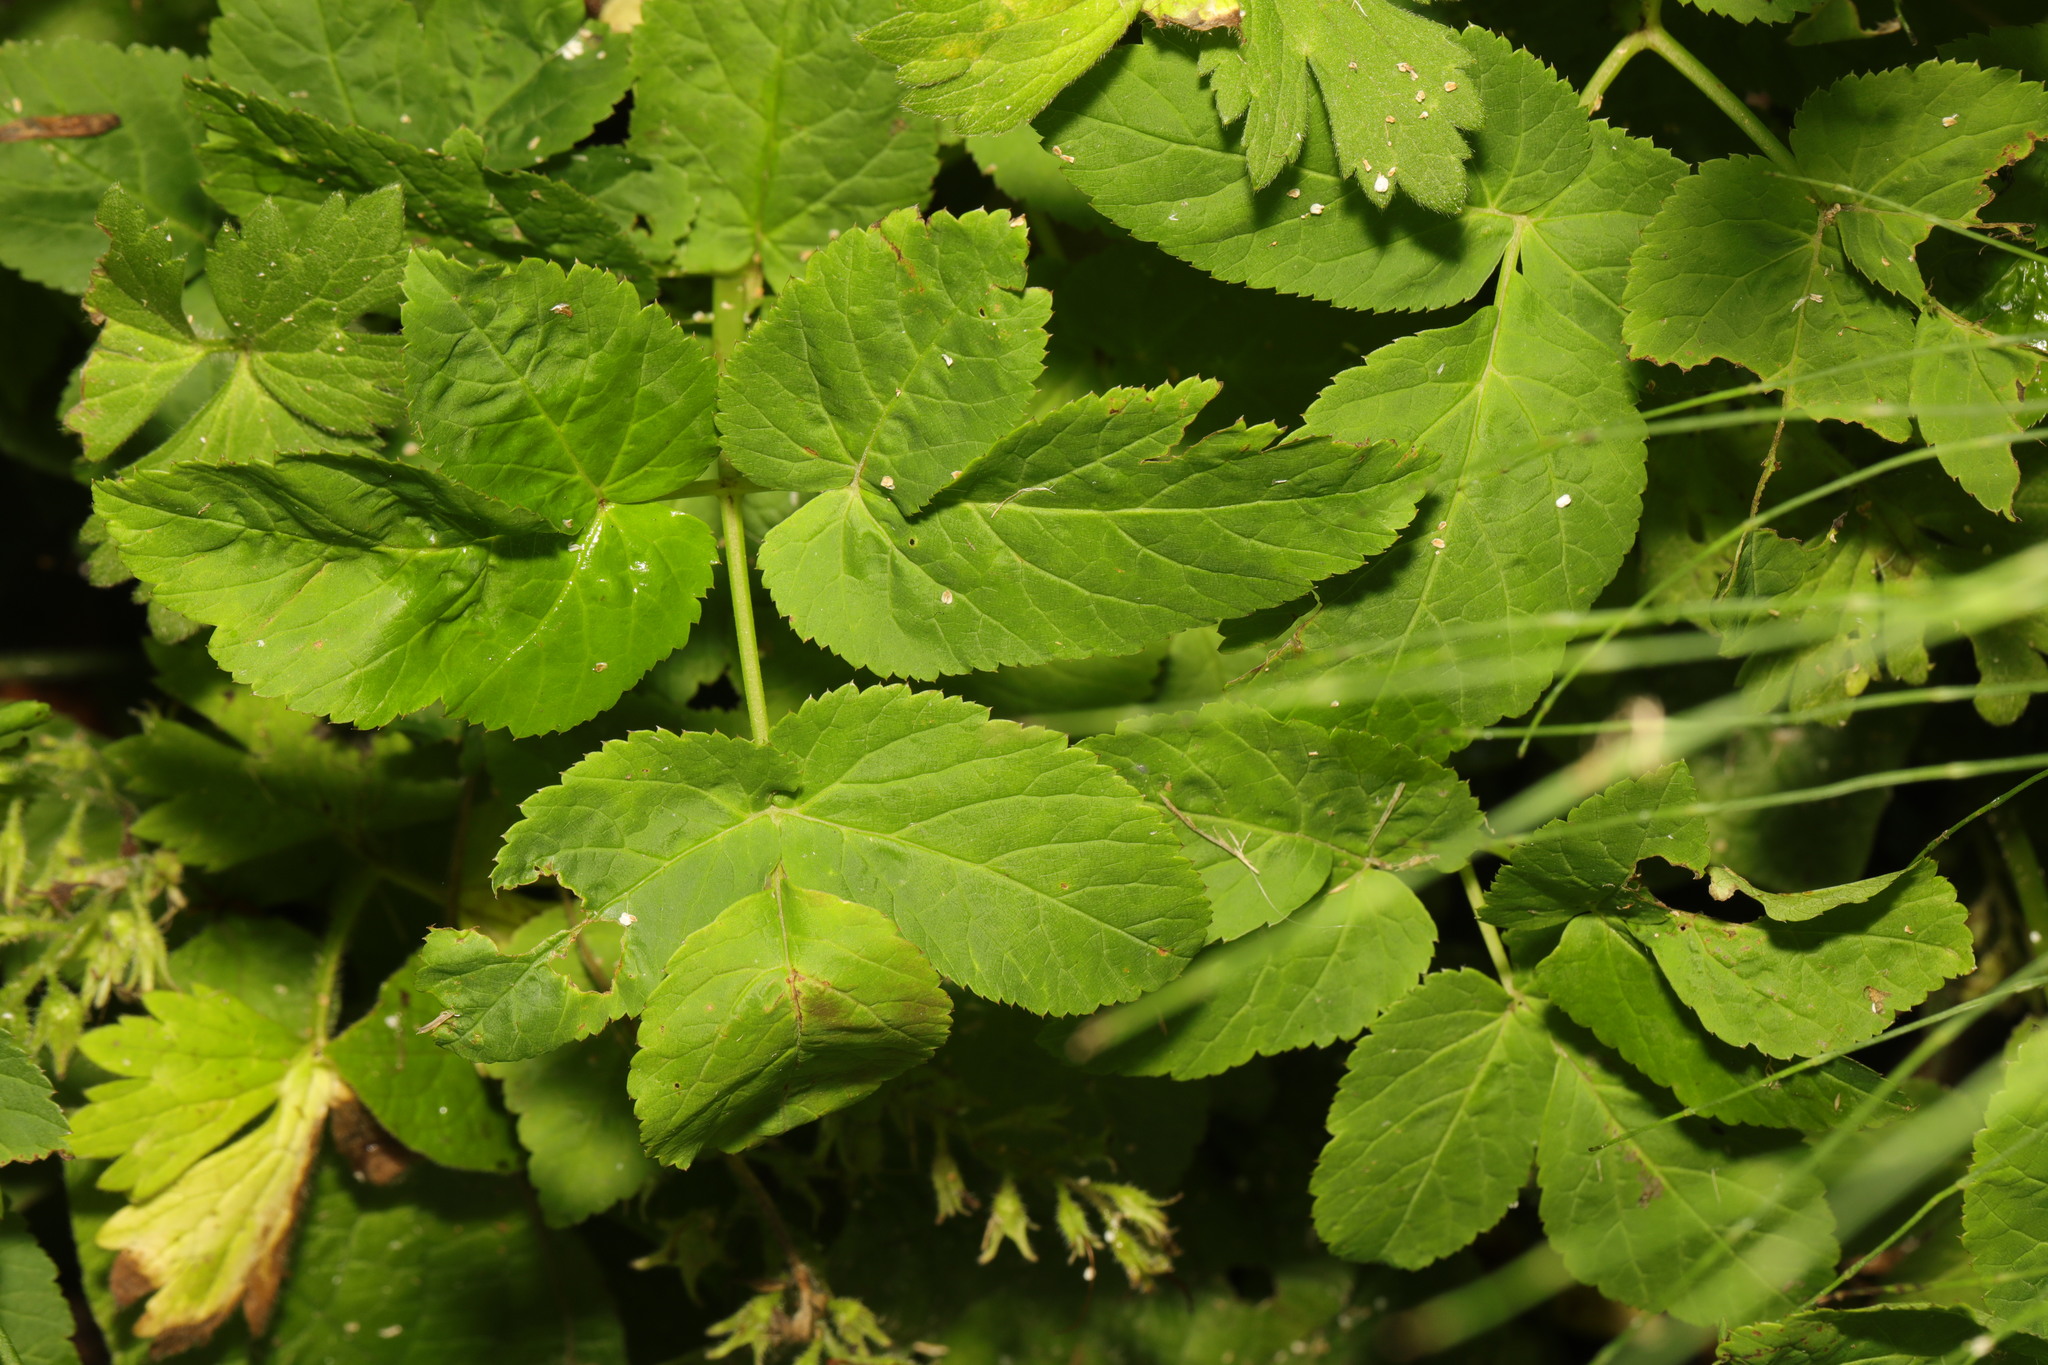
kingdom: Plantae
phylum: Tracheophyta
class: Magnoliopsida
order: Apiales
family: Apiaceae
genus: Aegopodium
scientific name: Aegopodium podagraria
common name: Ground-elder
